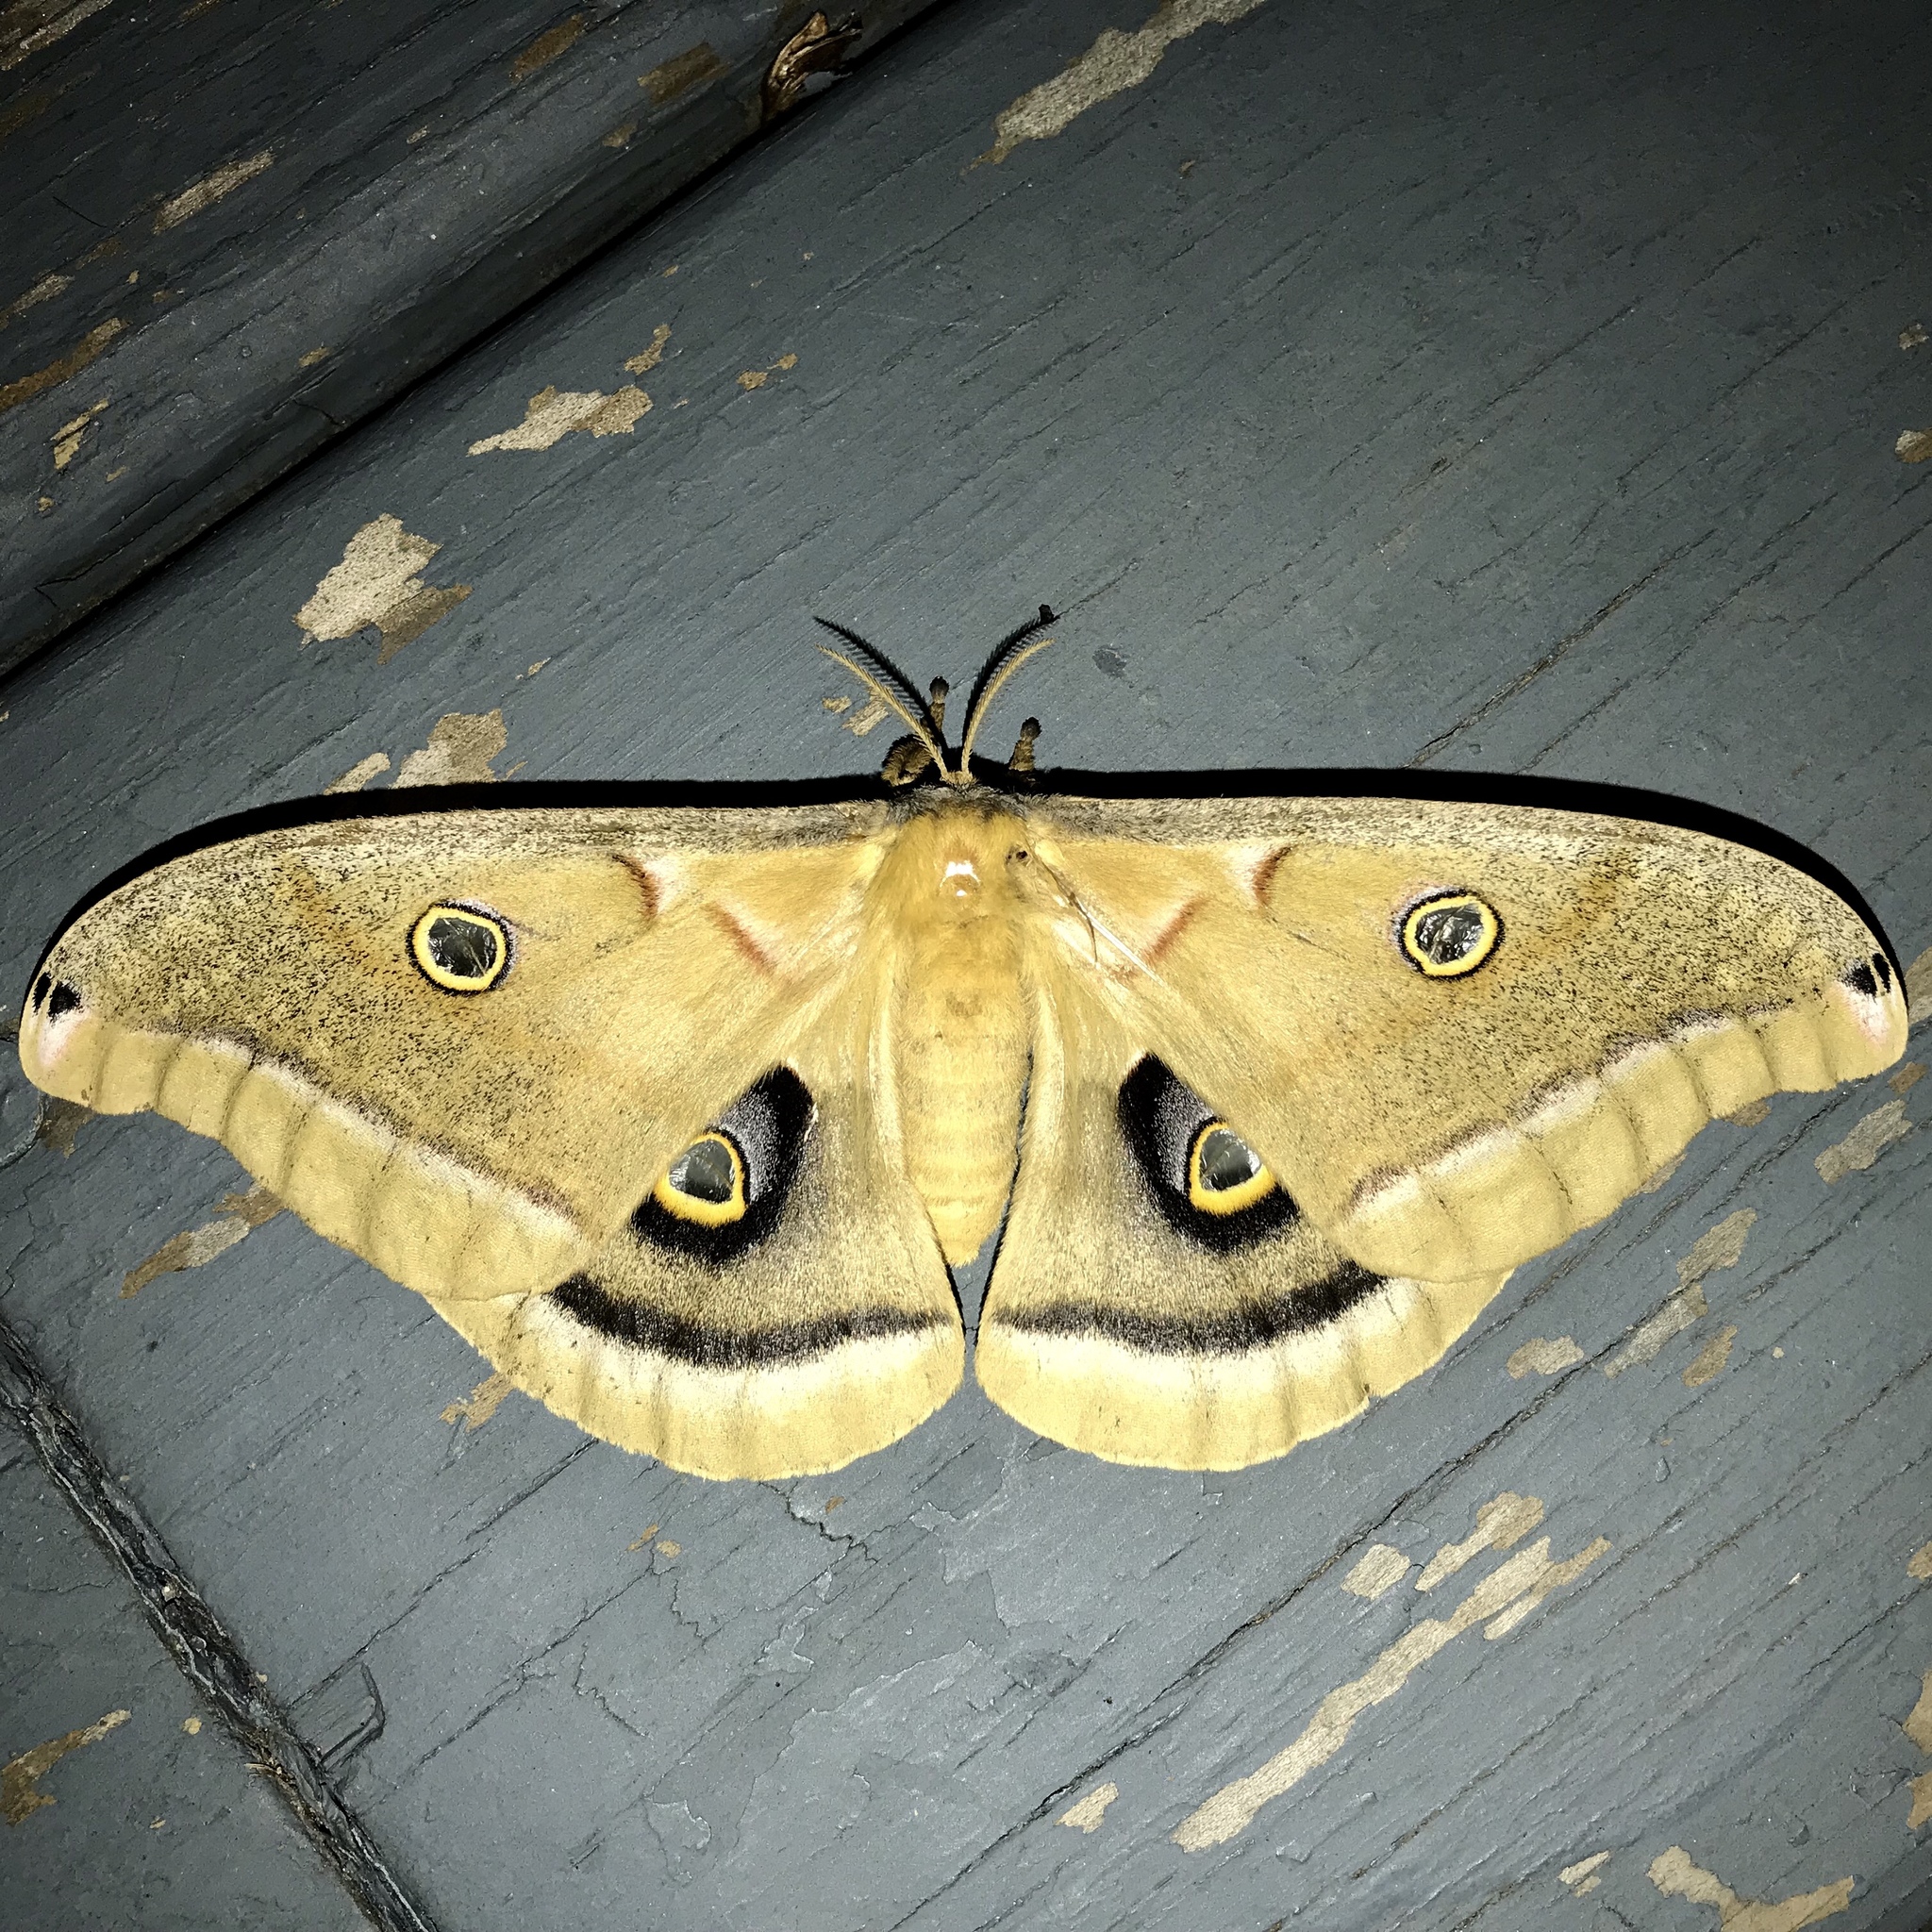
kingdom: Animalia
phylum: Arthropoda
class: Insecta
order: Lepidoptera
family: Saturniidae
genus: Antheraea
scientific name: Antheraea polyphemus
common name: Polyphemus moth
